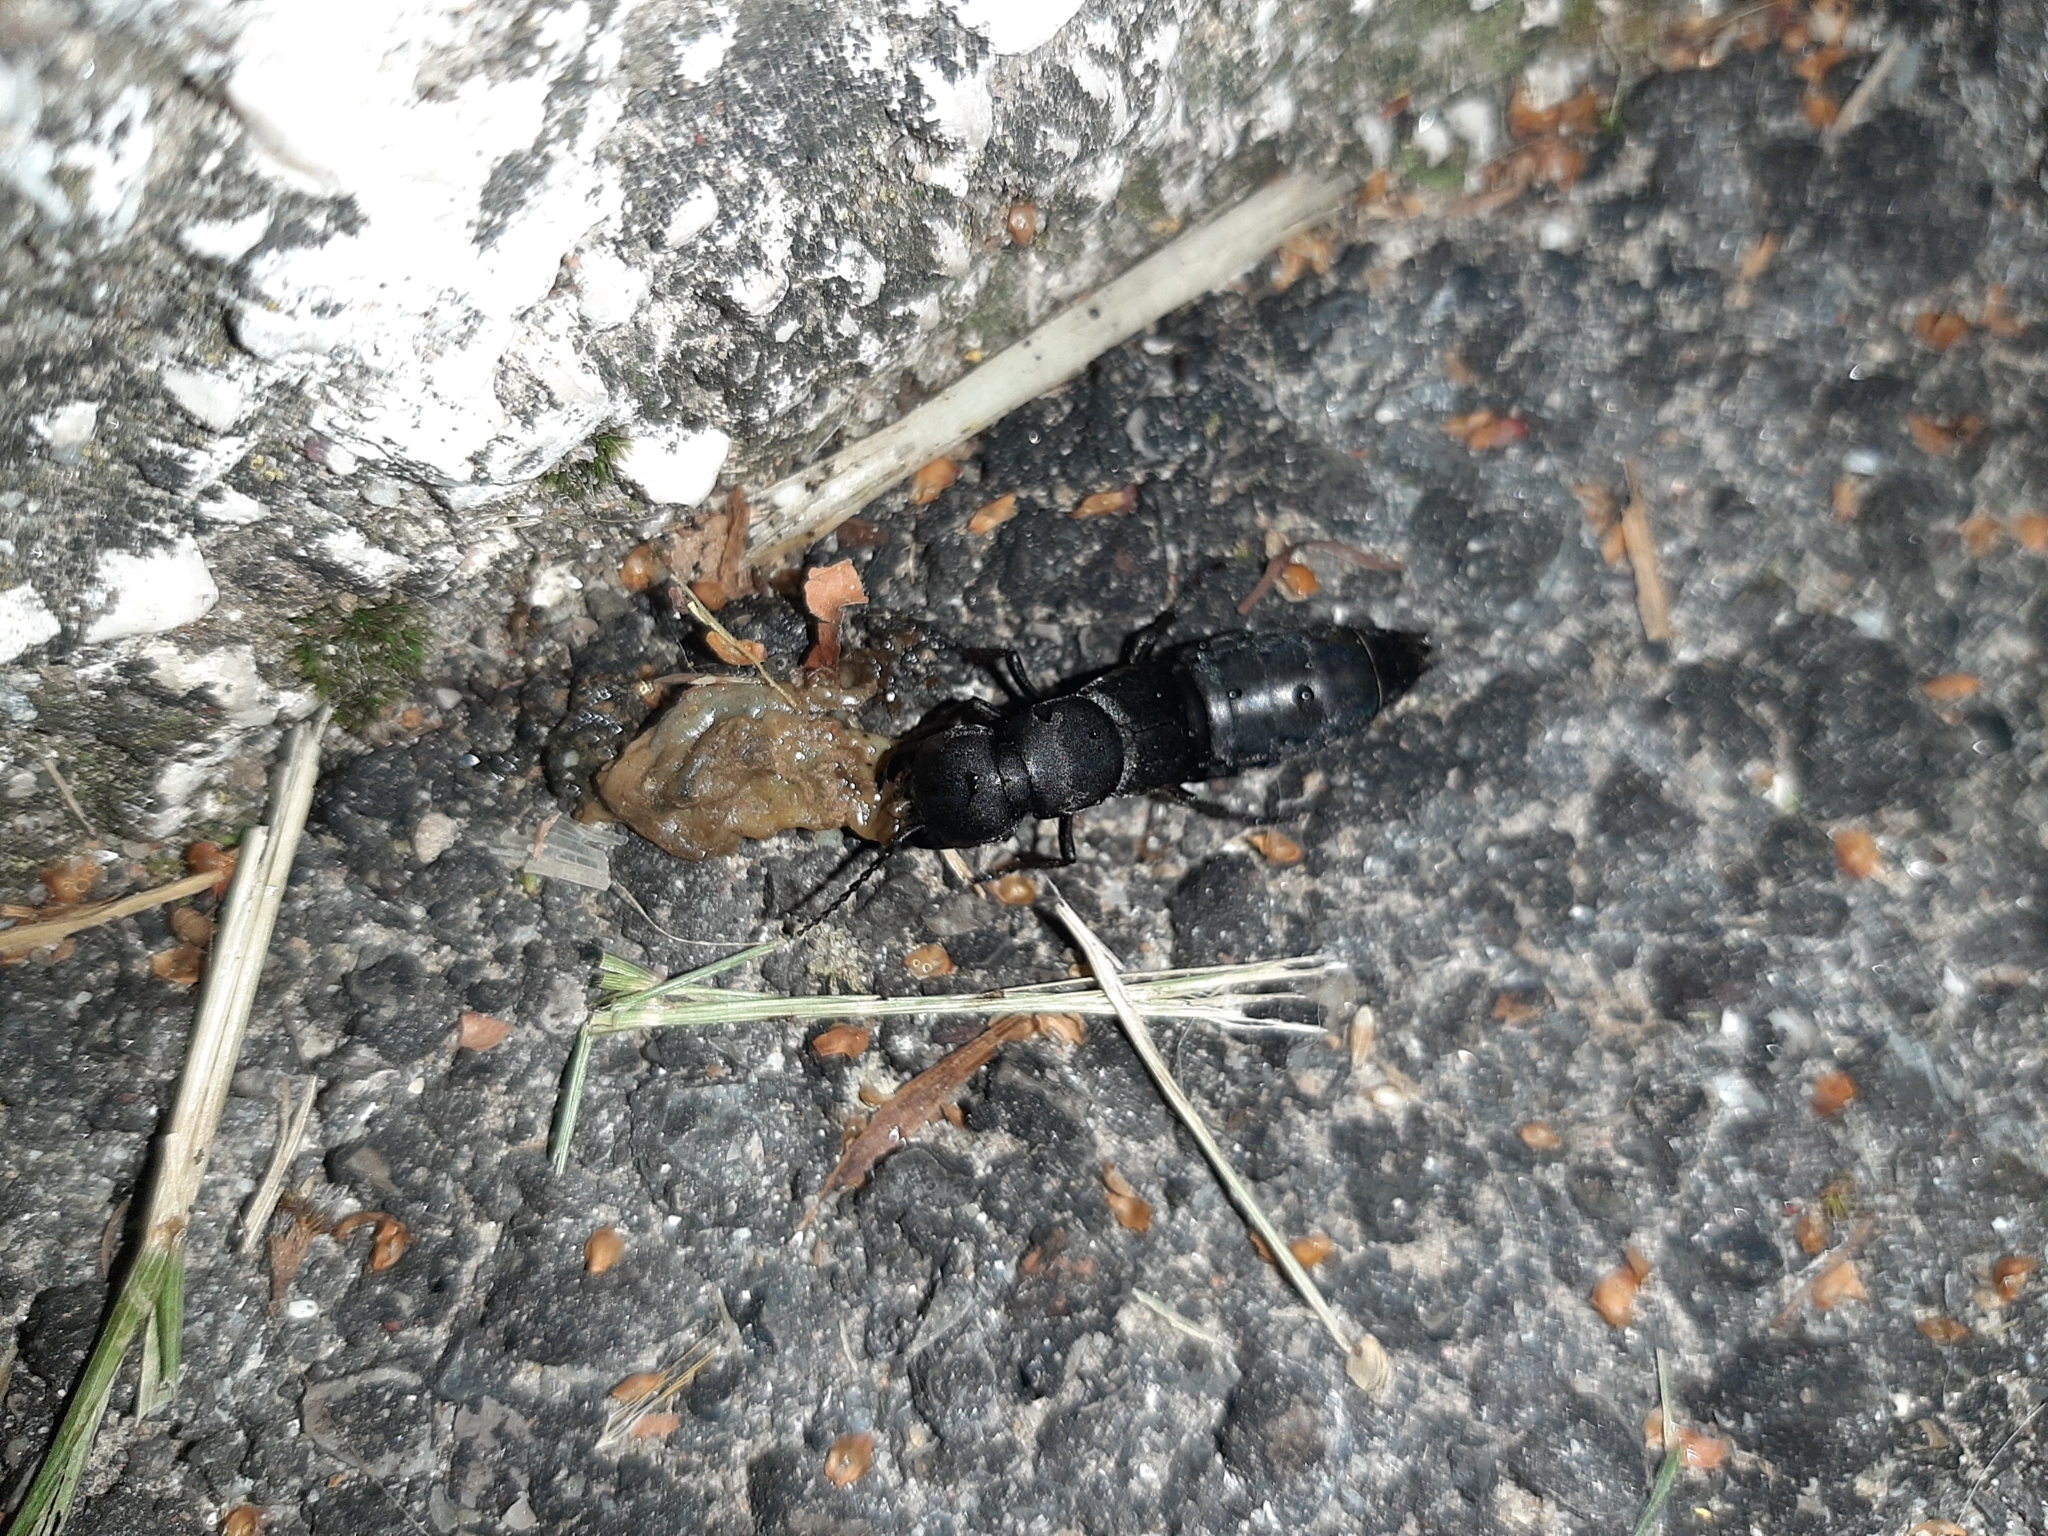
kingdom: Animalia
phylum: Arthropoda
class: Insecta
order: Coleoptera
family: Staphylinidae
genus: Ocypus
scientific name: Ocypus olens
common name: Devil's coach-horse
